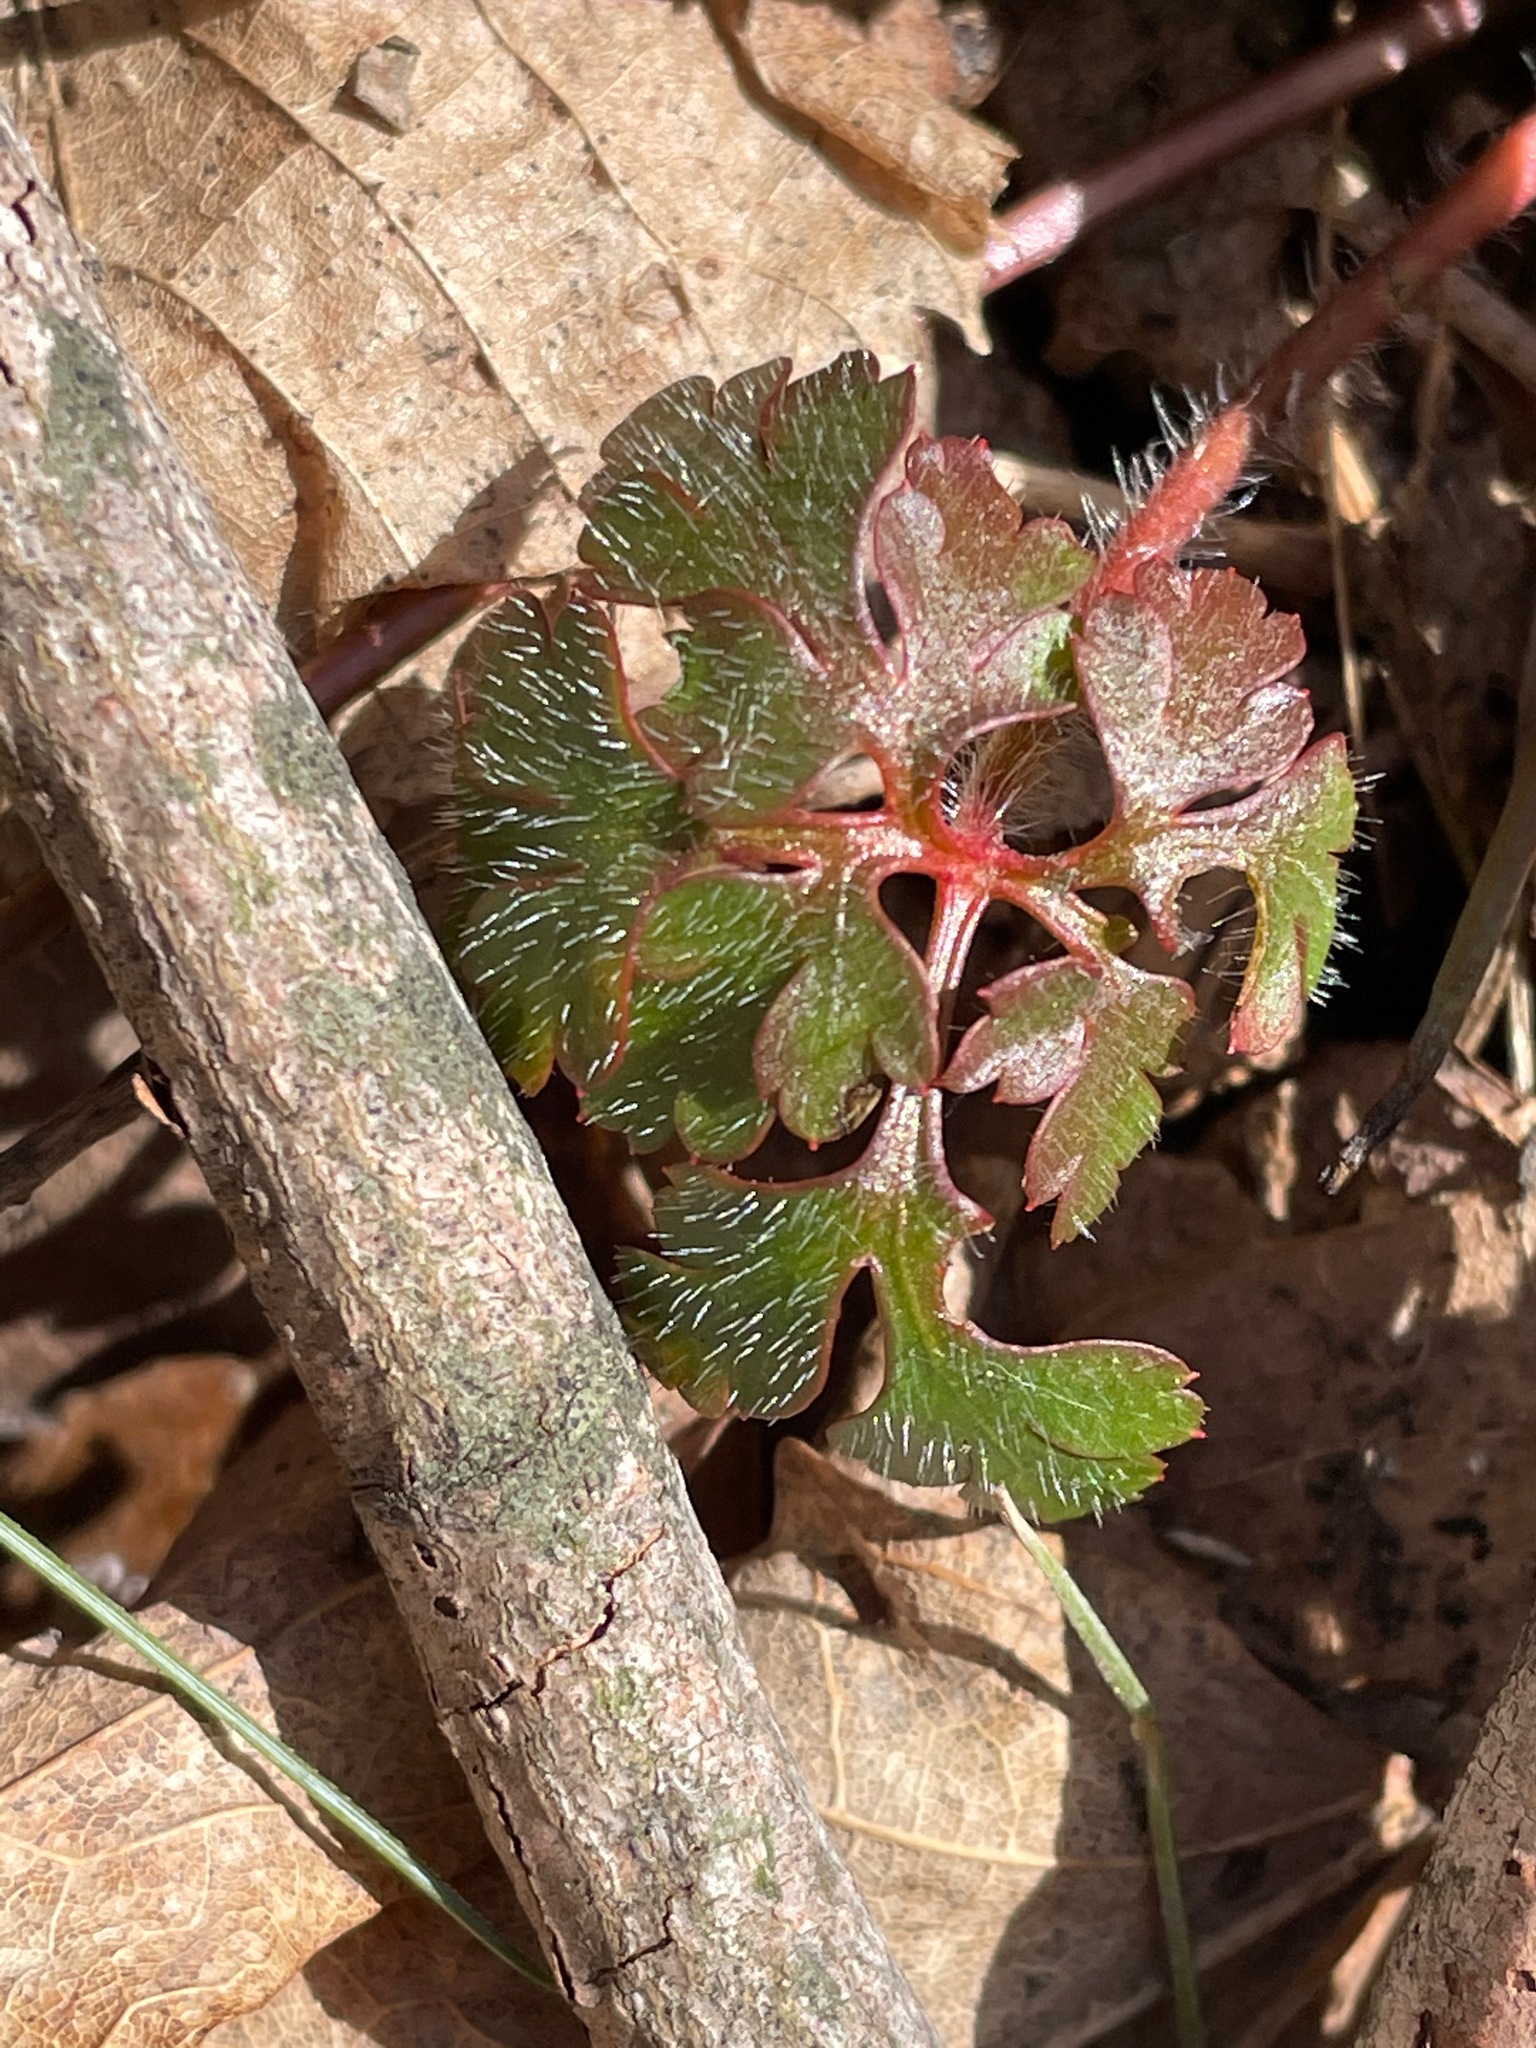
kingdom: Plantae
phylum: Tracheophyta
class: Magnoliopsida
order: Geraniales
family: Geraniaceae
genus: Geranium
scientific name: Geranium robertianum
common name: Herb-robert
